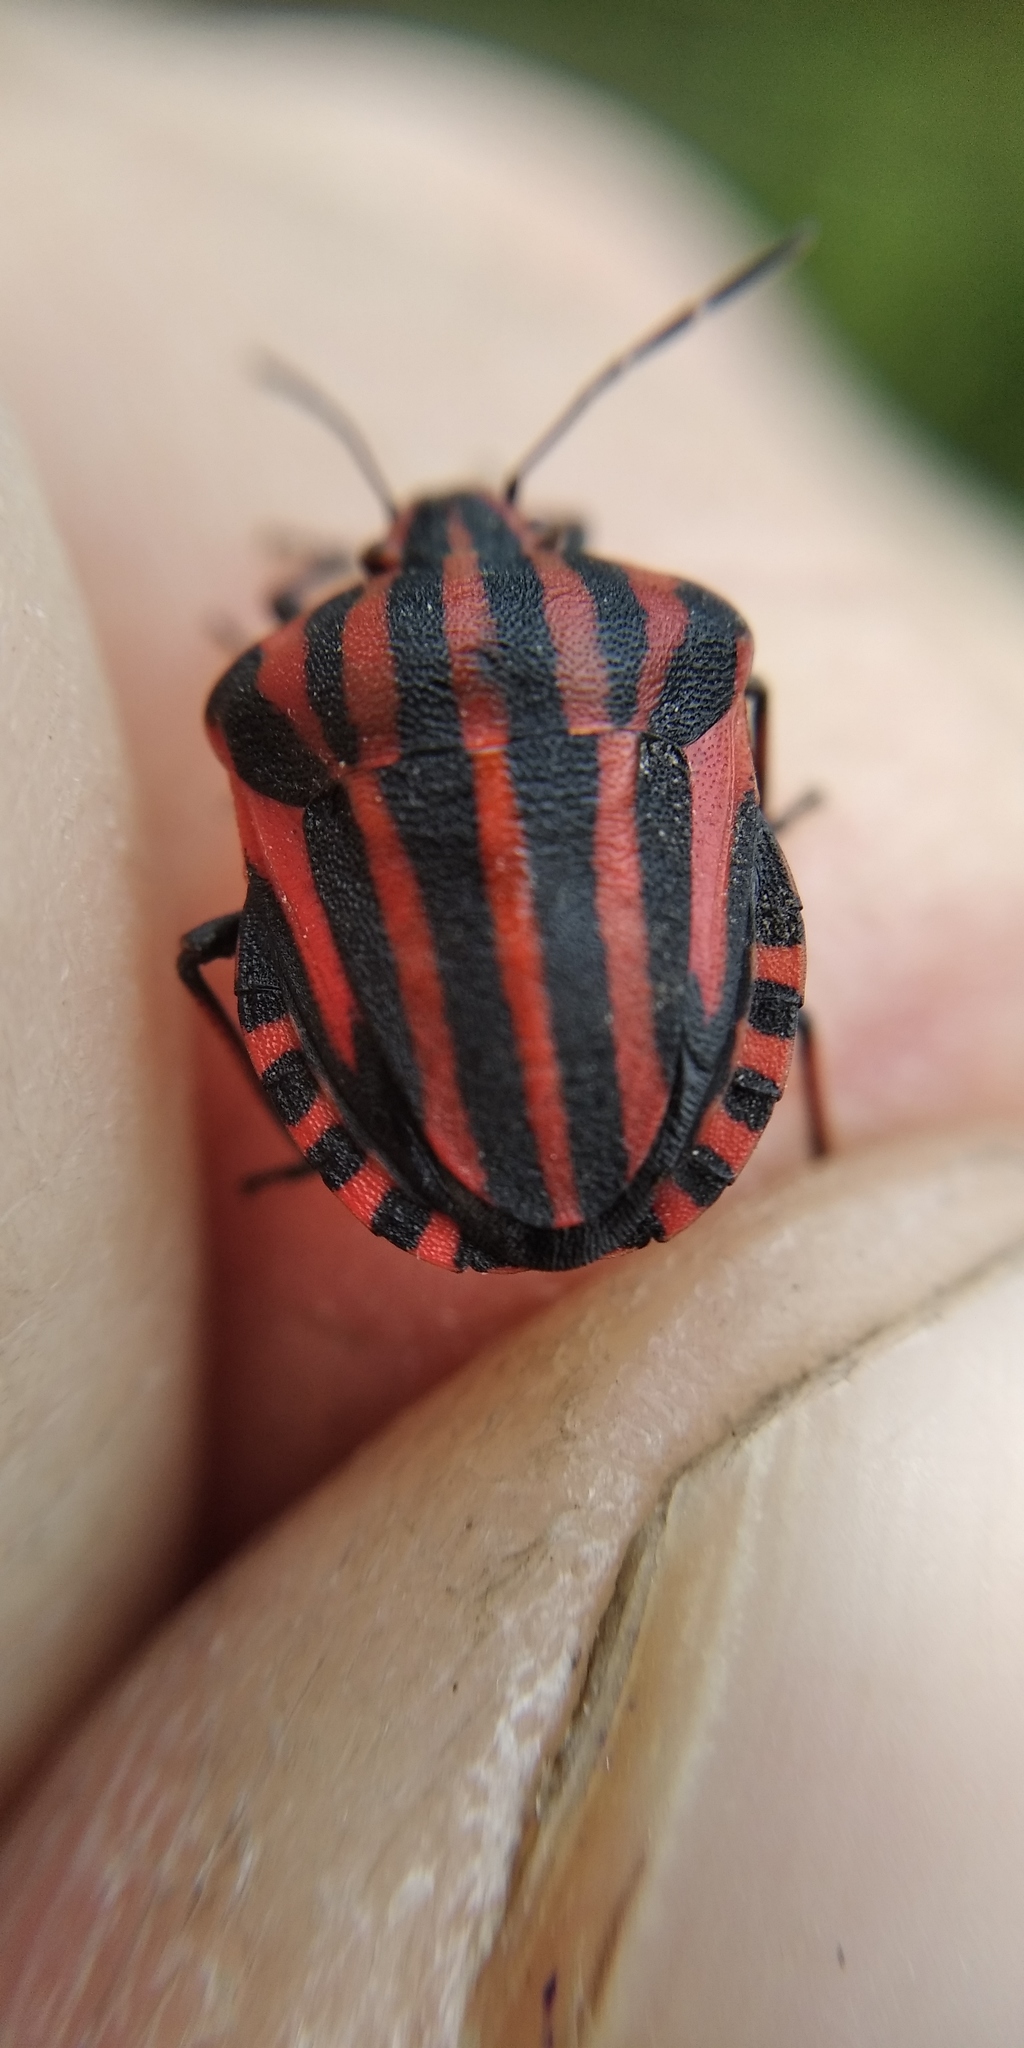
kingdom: Animalia
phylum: Arthropoda
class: Insecta
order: Hemiptera
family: Pentatomidae
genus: Graphosoma
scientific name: Graphosoma italicum
